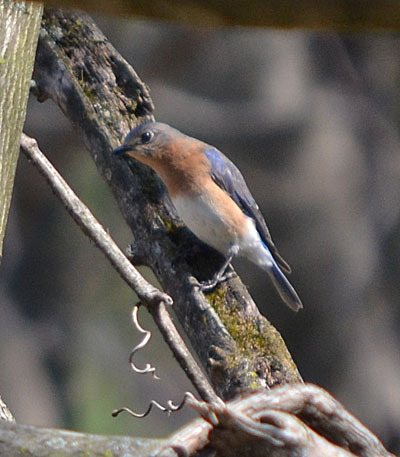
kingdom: Animalia
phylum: Chordata
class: Aves
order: Passeriformes
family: Turdidae
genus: Sialia
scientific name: Sialia sialis
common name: Eastern bluebird
